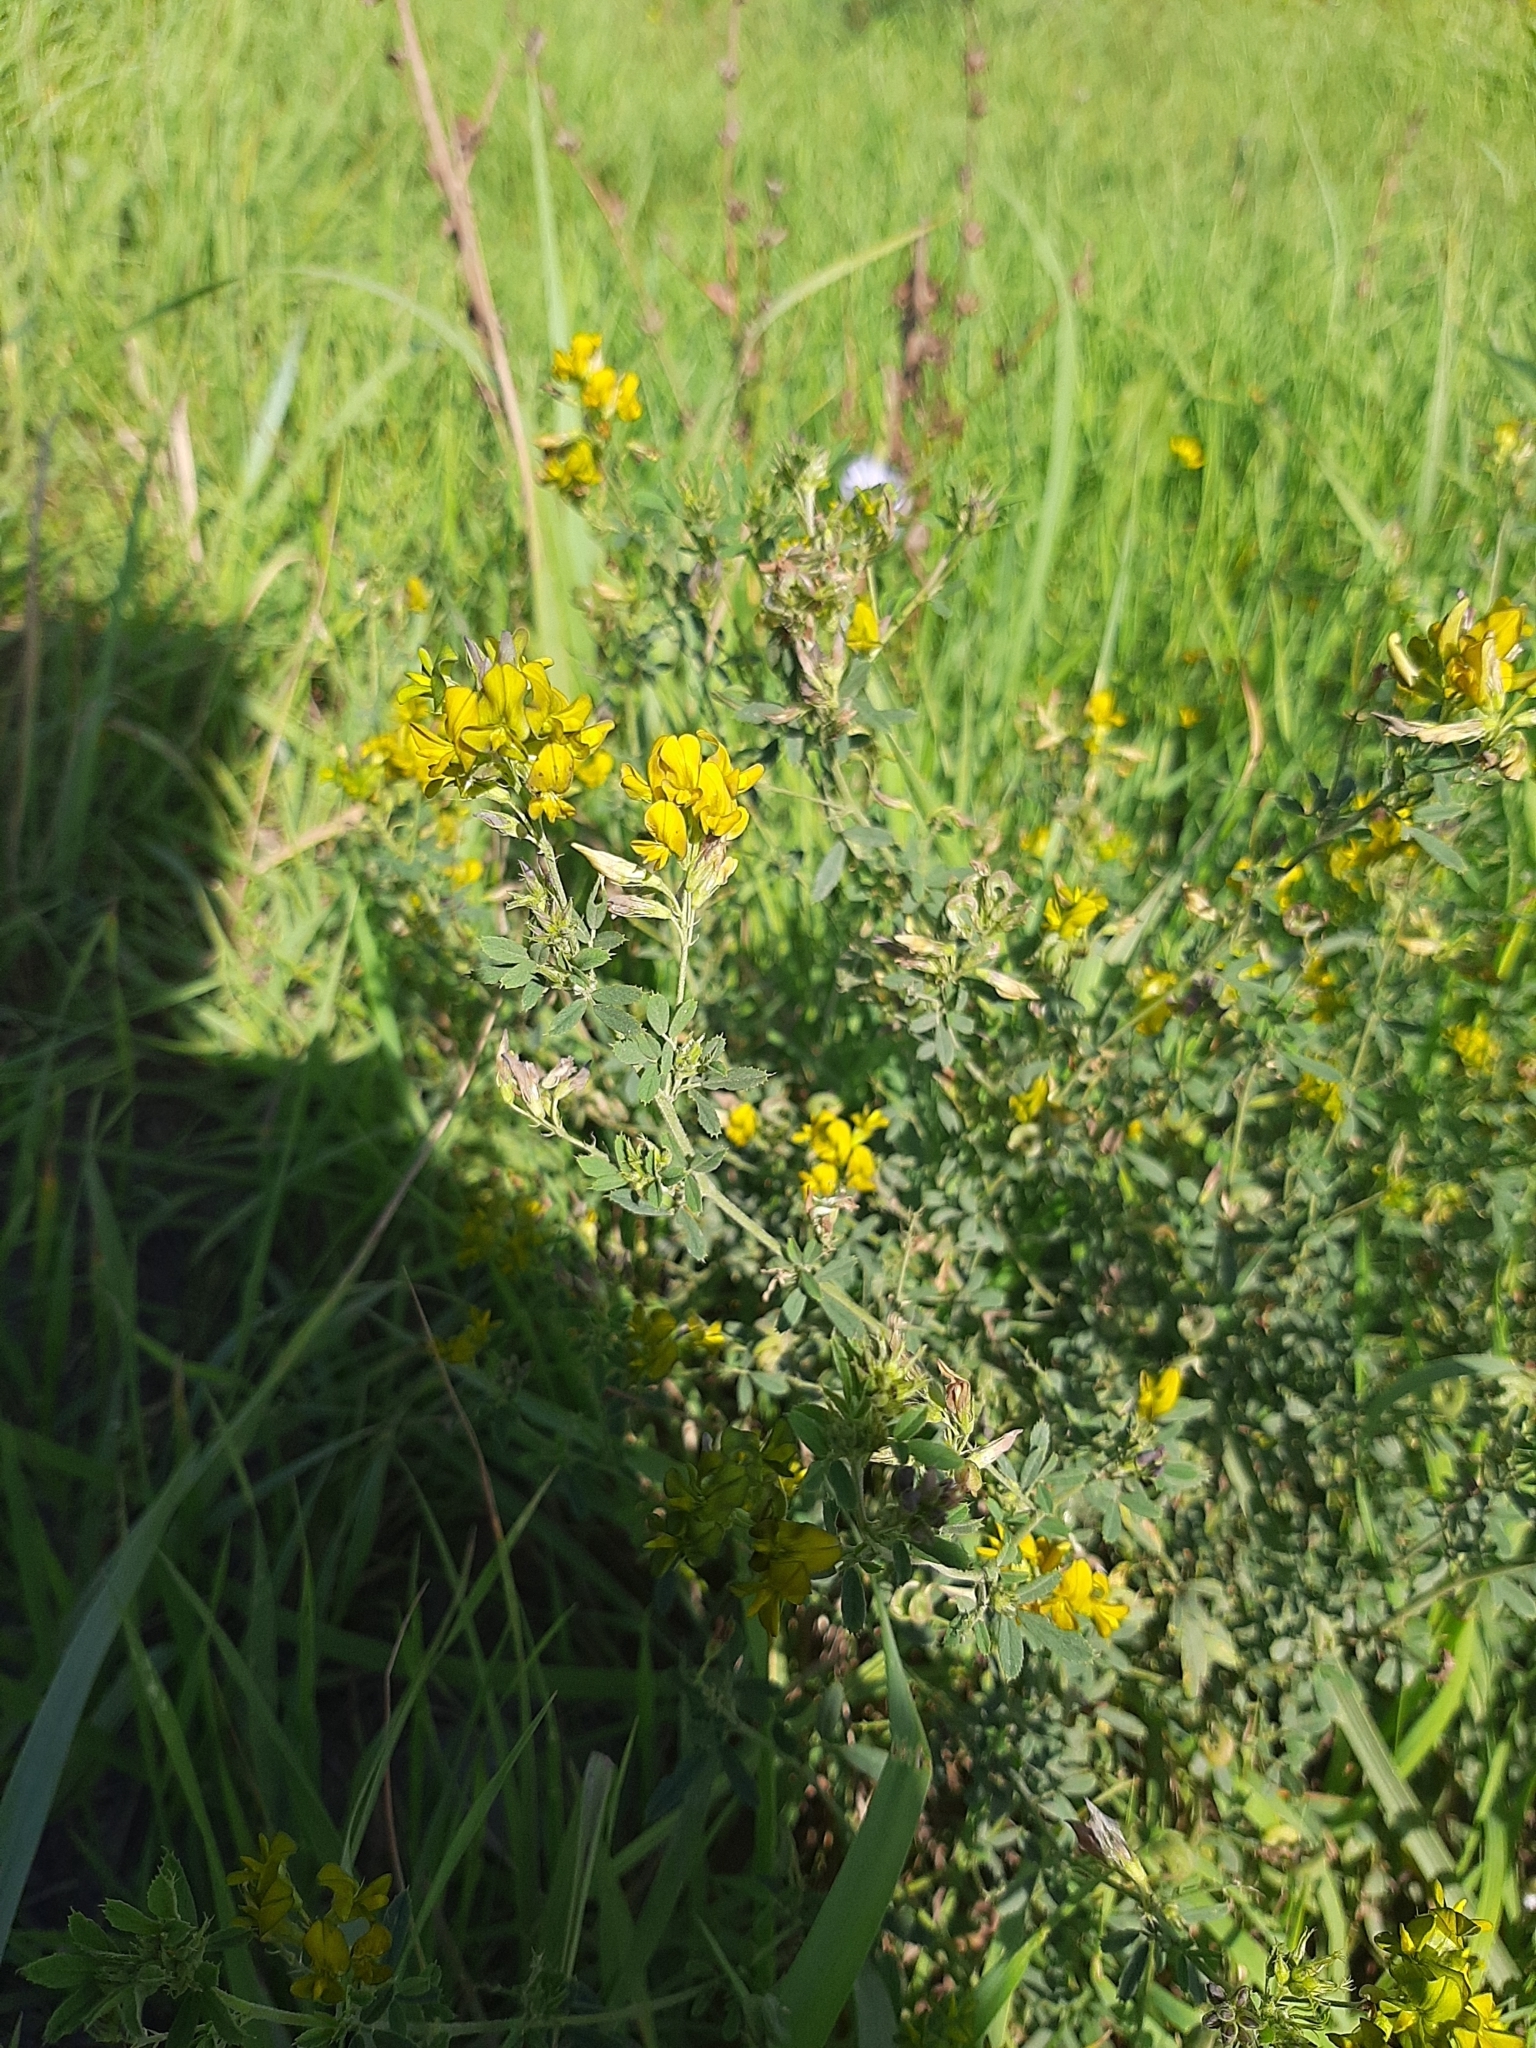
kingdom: Plantae
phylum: Tracheophyta
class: Magnoliopsida
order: Fabales
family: Fabaceae
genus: Medicago
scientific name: Medicago varia
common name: Sand lucerne
